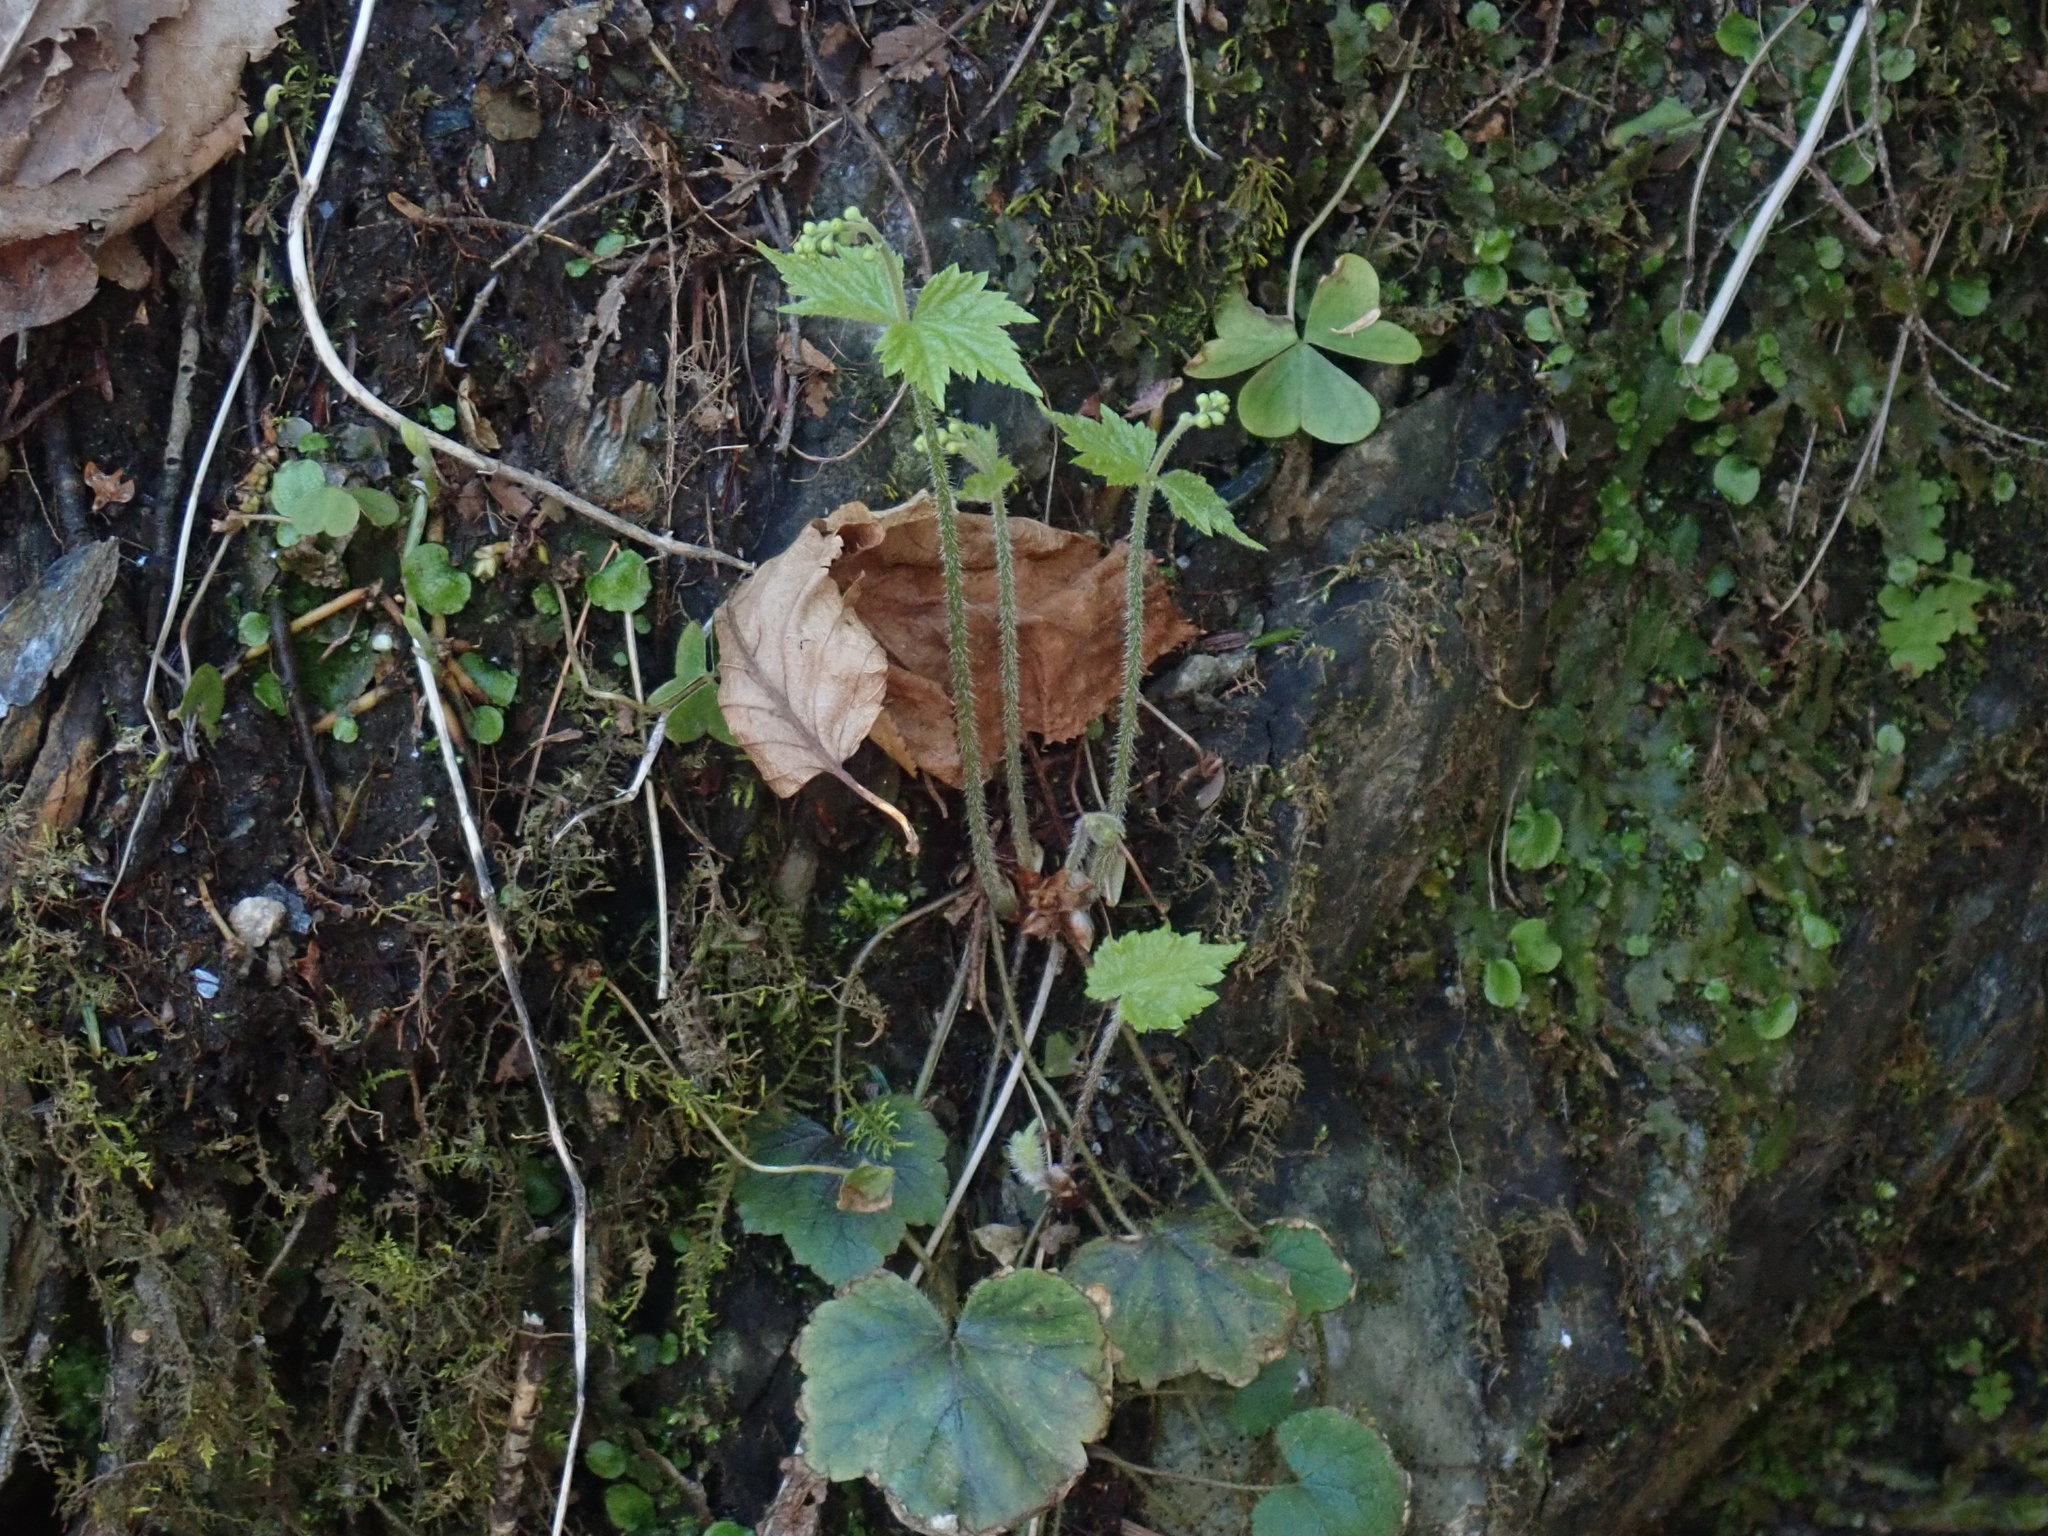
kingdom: Plantae
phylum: Tracheophyta
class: Magnoliopsida
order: Saxifragales
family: Saxifragaceae
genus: Mitella
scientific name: Mitella diphylla
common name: Coolwort
